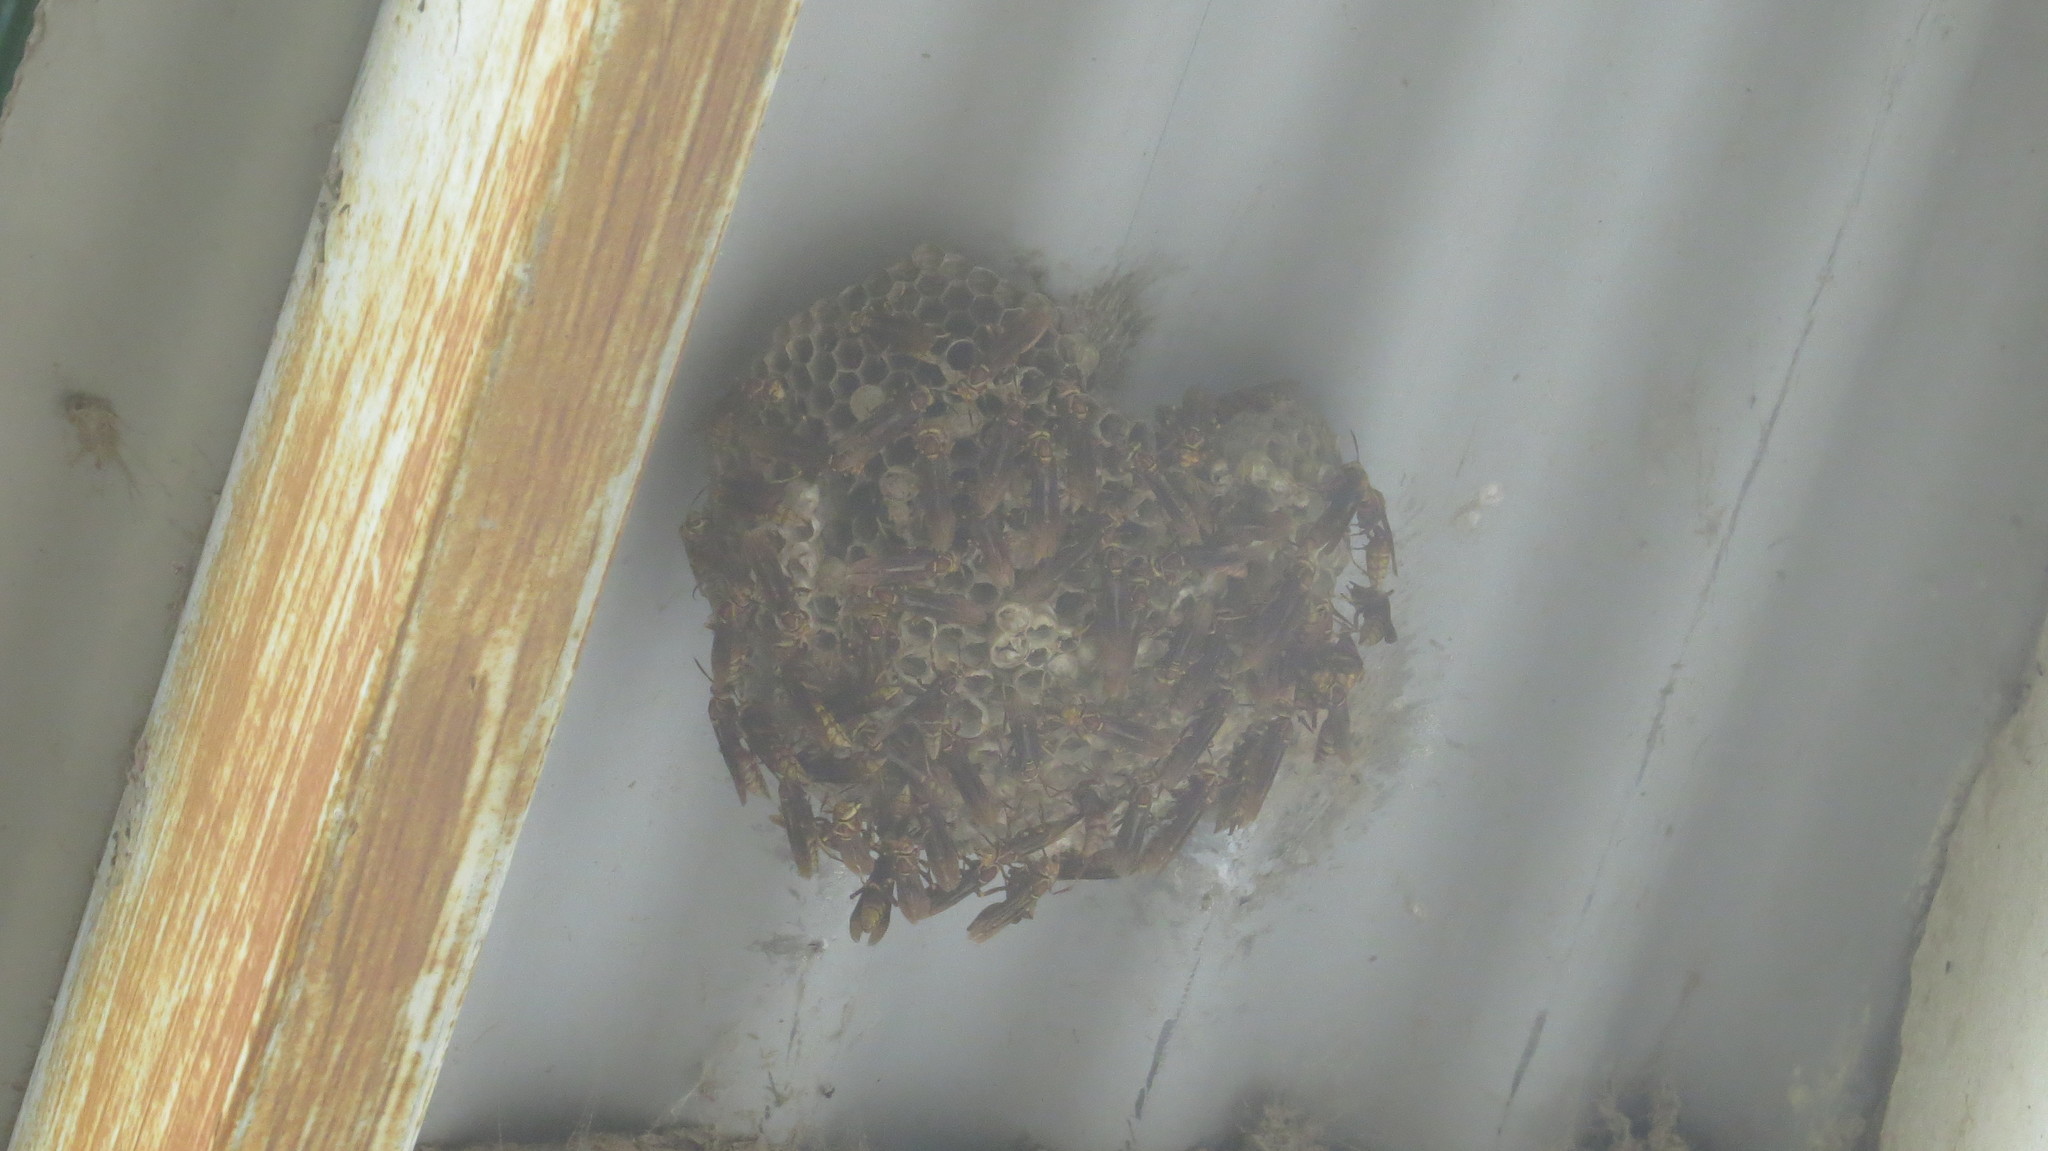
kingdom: Animalia
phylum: Arthropoda
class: Insecta
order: Hymenoptera
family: Eumenidae
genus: Polistes
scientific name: Polistes cavapyta
